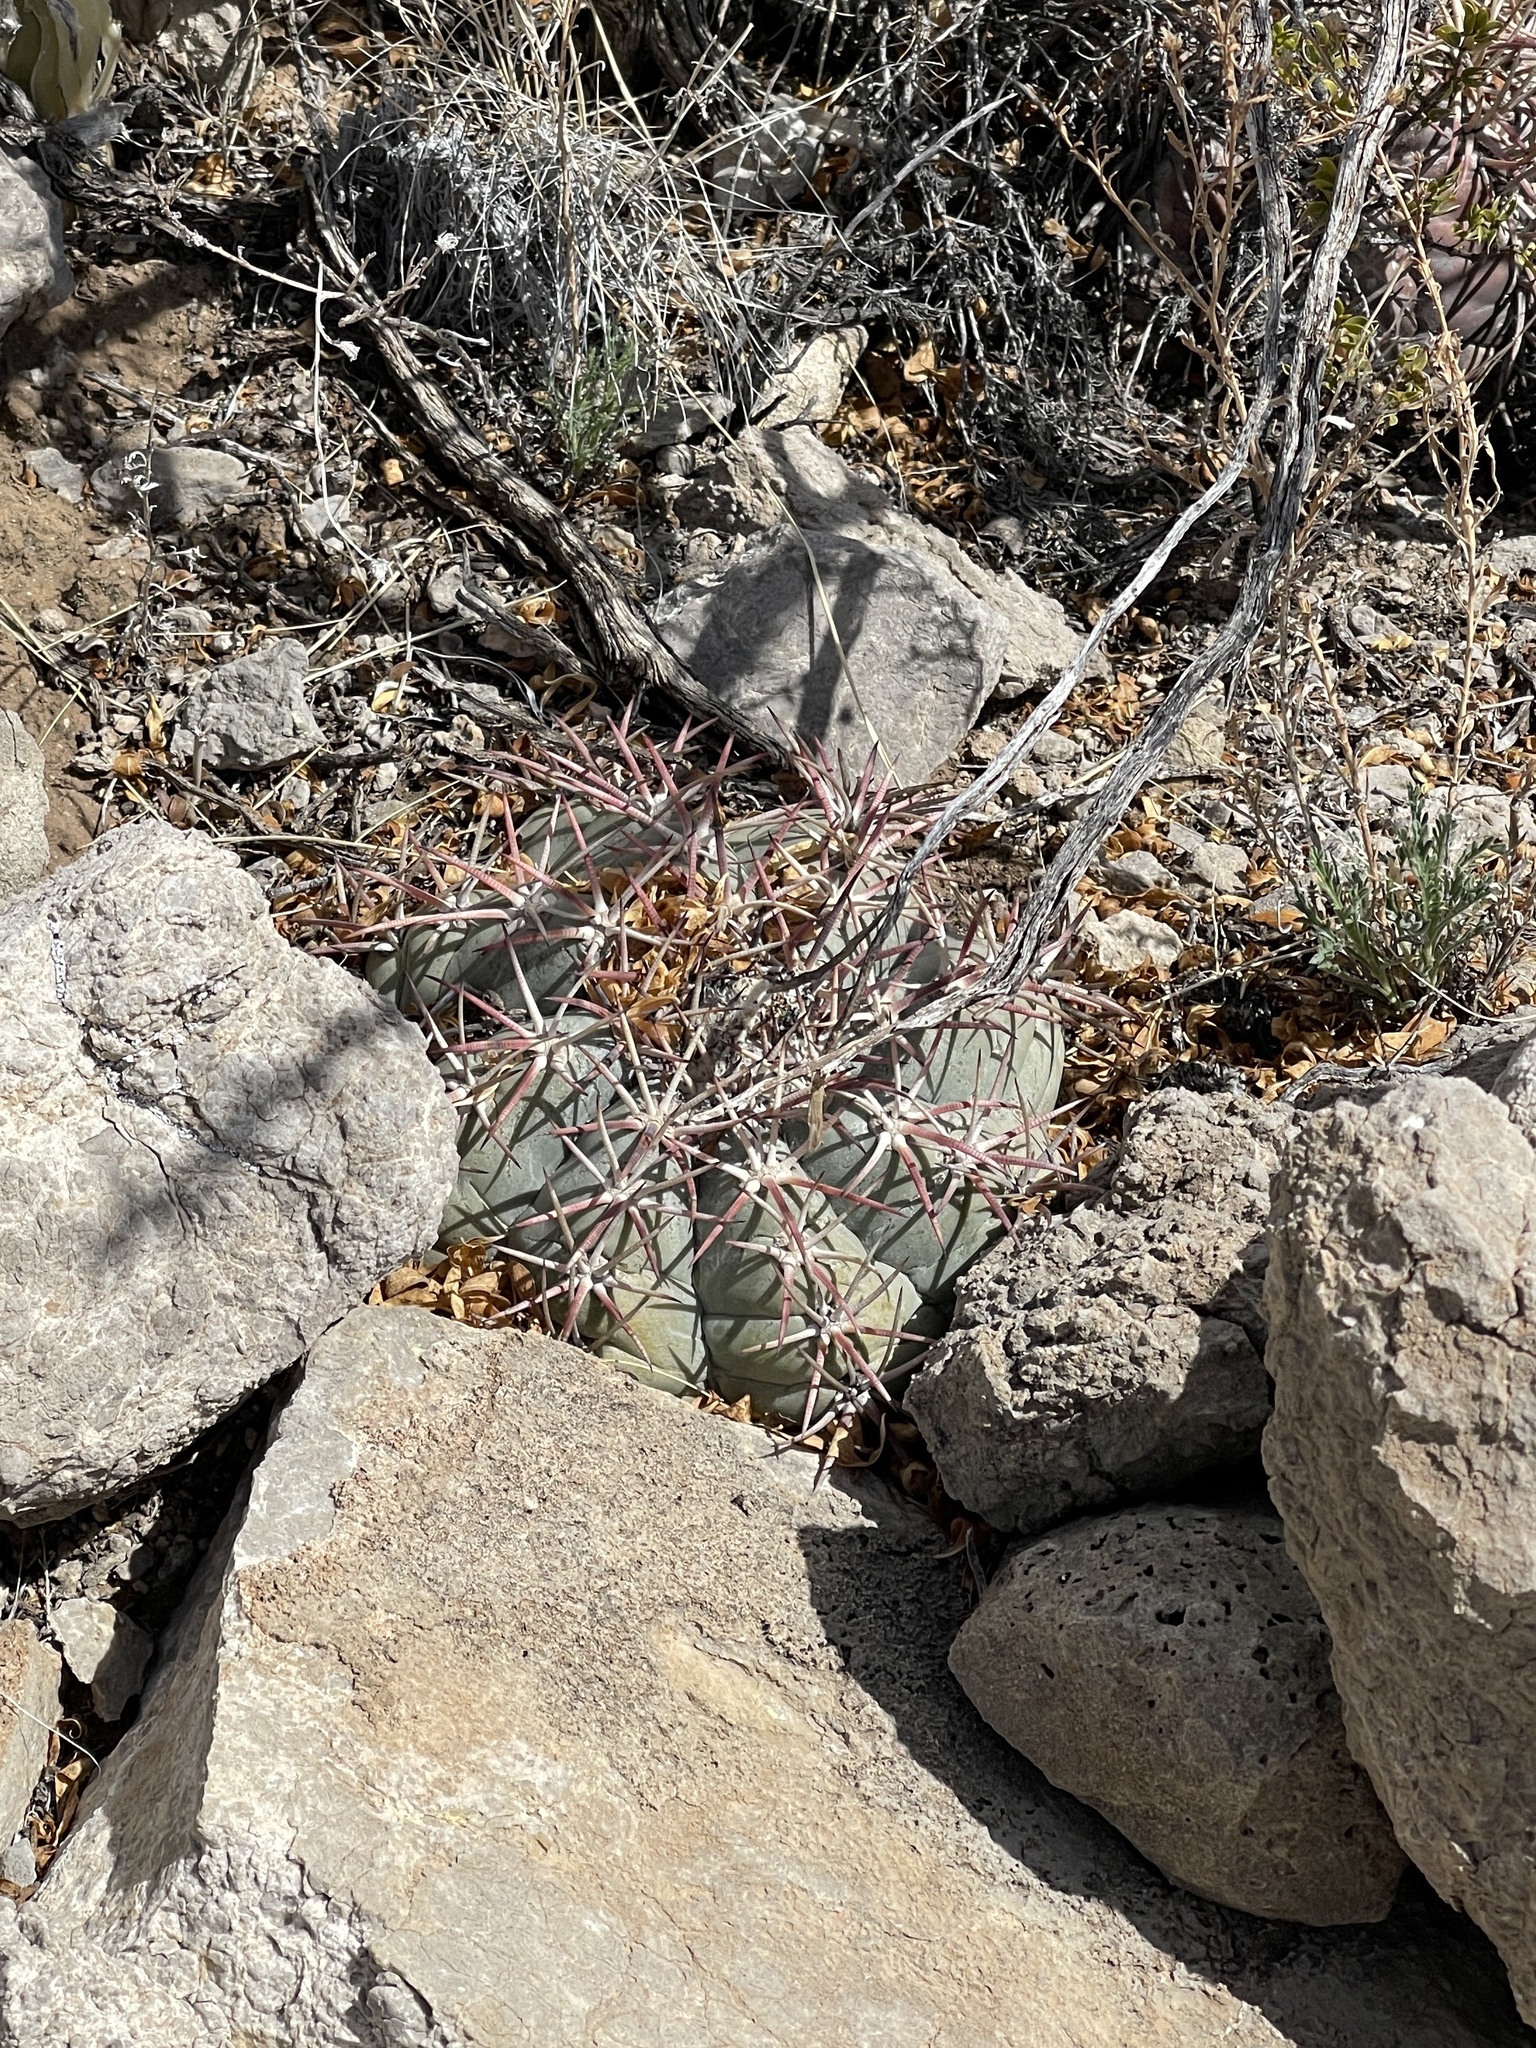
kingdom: Plantae
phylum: Tracheophyta
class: Magnoliopsida
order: Caryophyllales
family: Cactaceae
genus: Echinocactus
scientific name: Echinocactus horizonthalonius
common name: Devilshead
